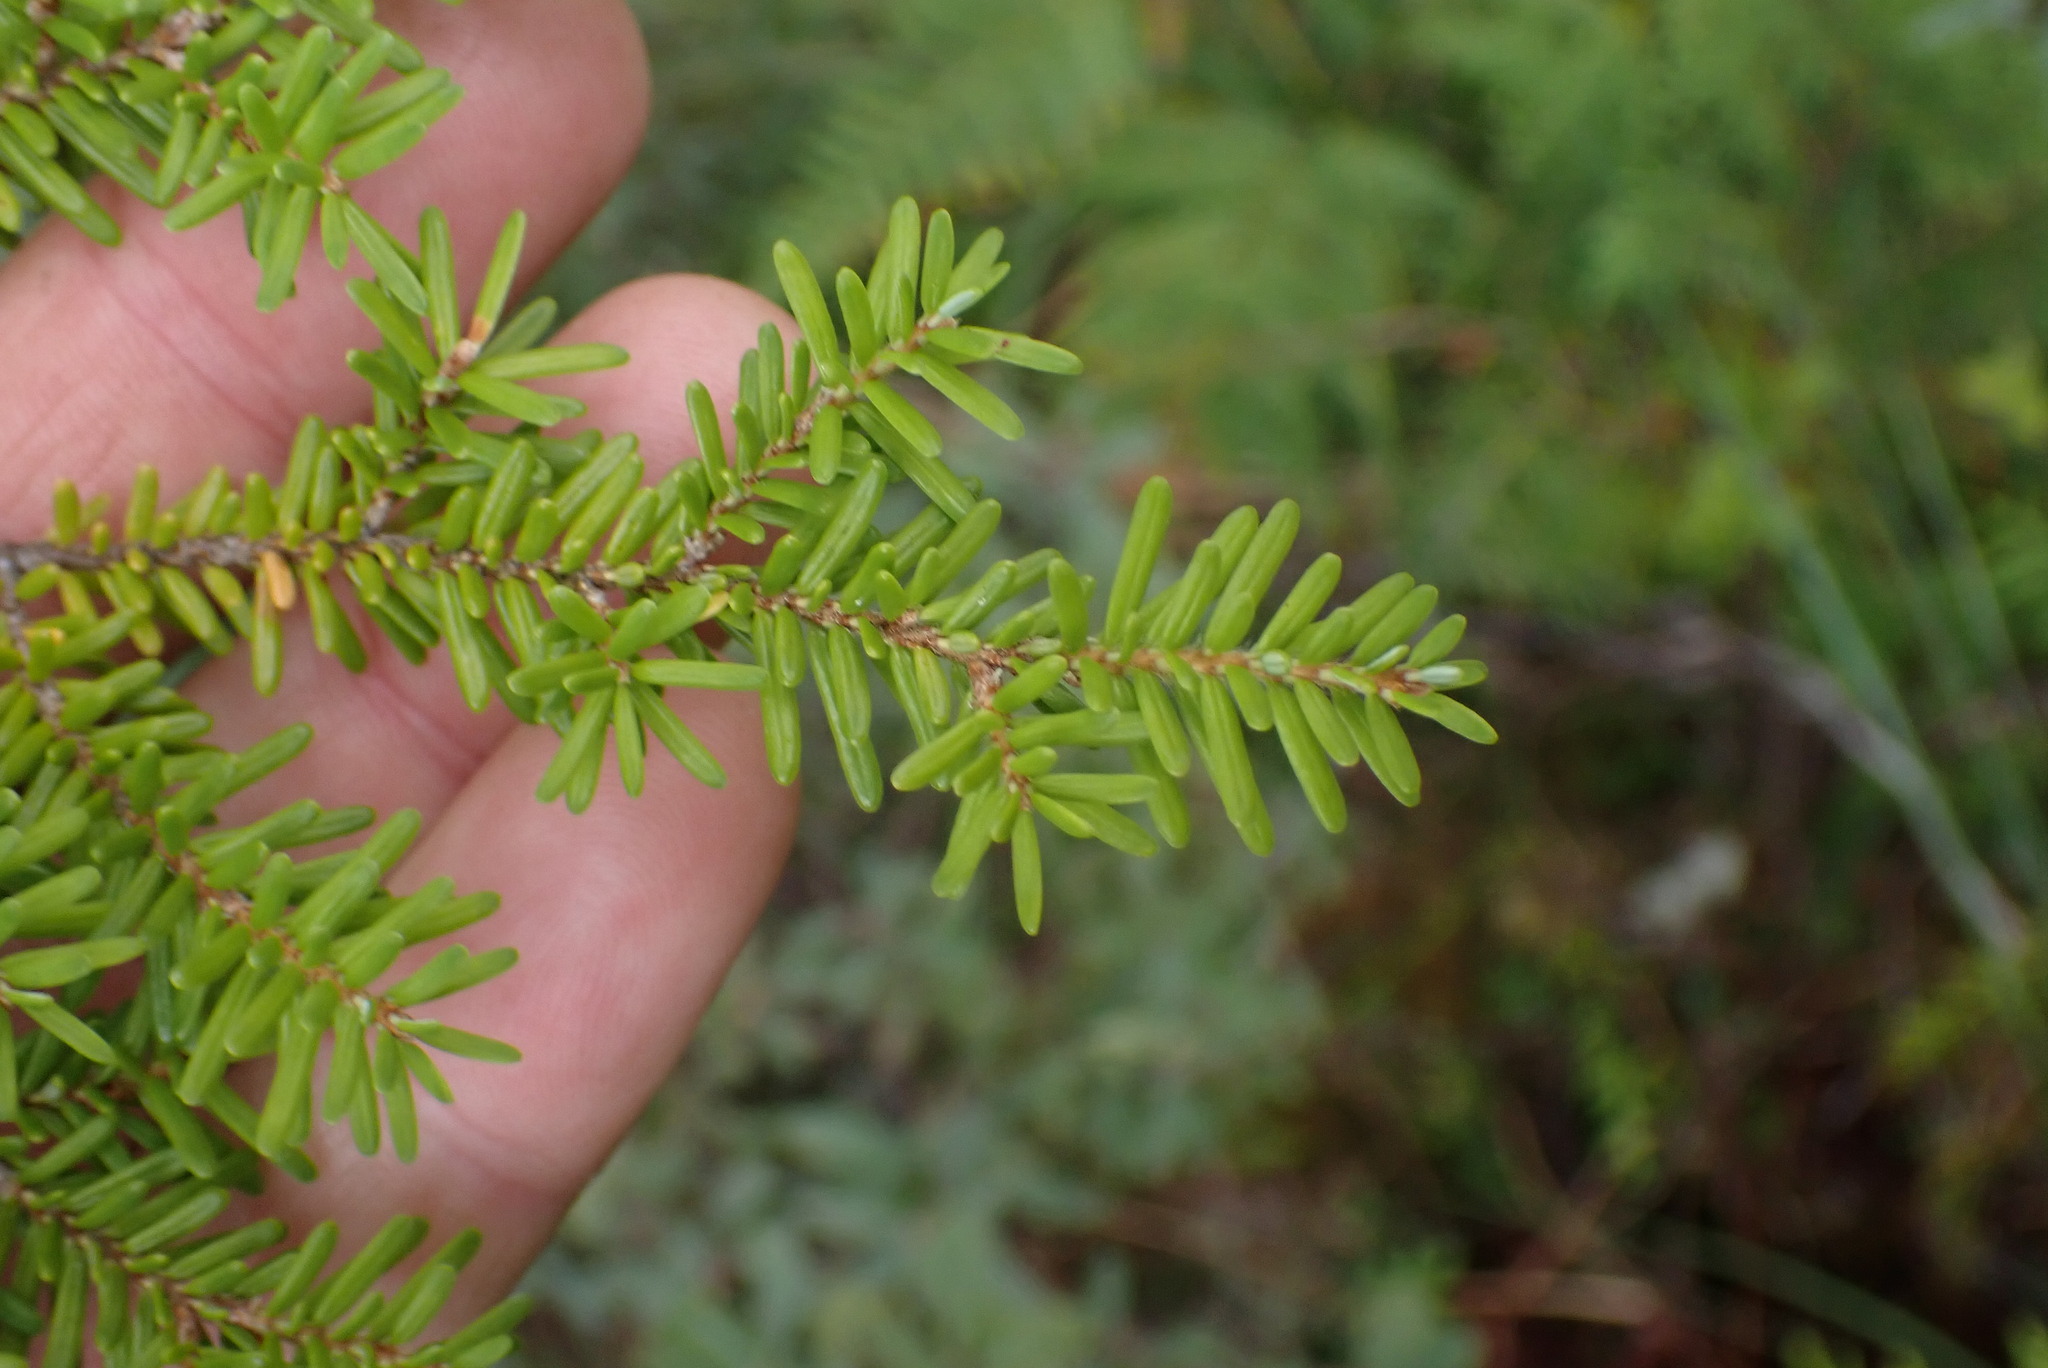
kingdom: Plantae
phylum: Tracheophyta
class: Pinopsida
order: Pinales
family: Pinaceae
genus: Tsuga
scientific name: Tsuga heterophylla
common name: Western hemlock
